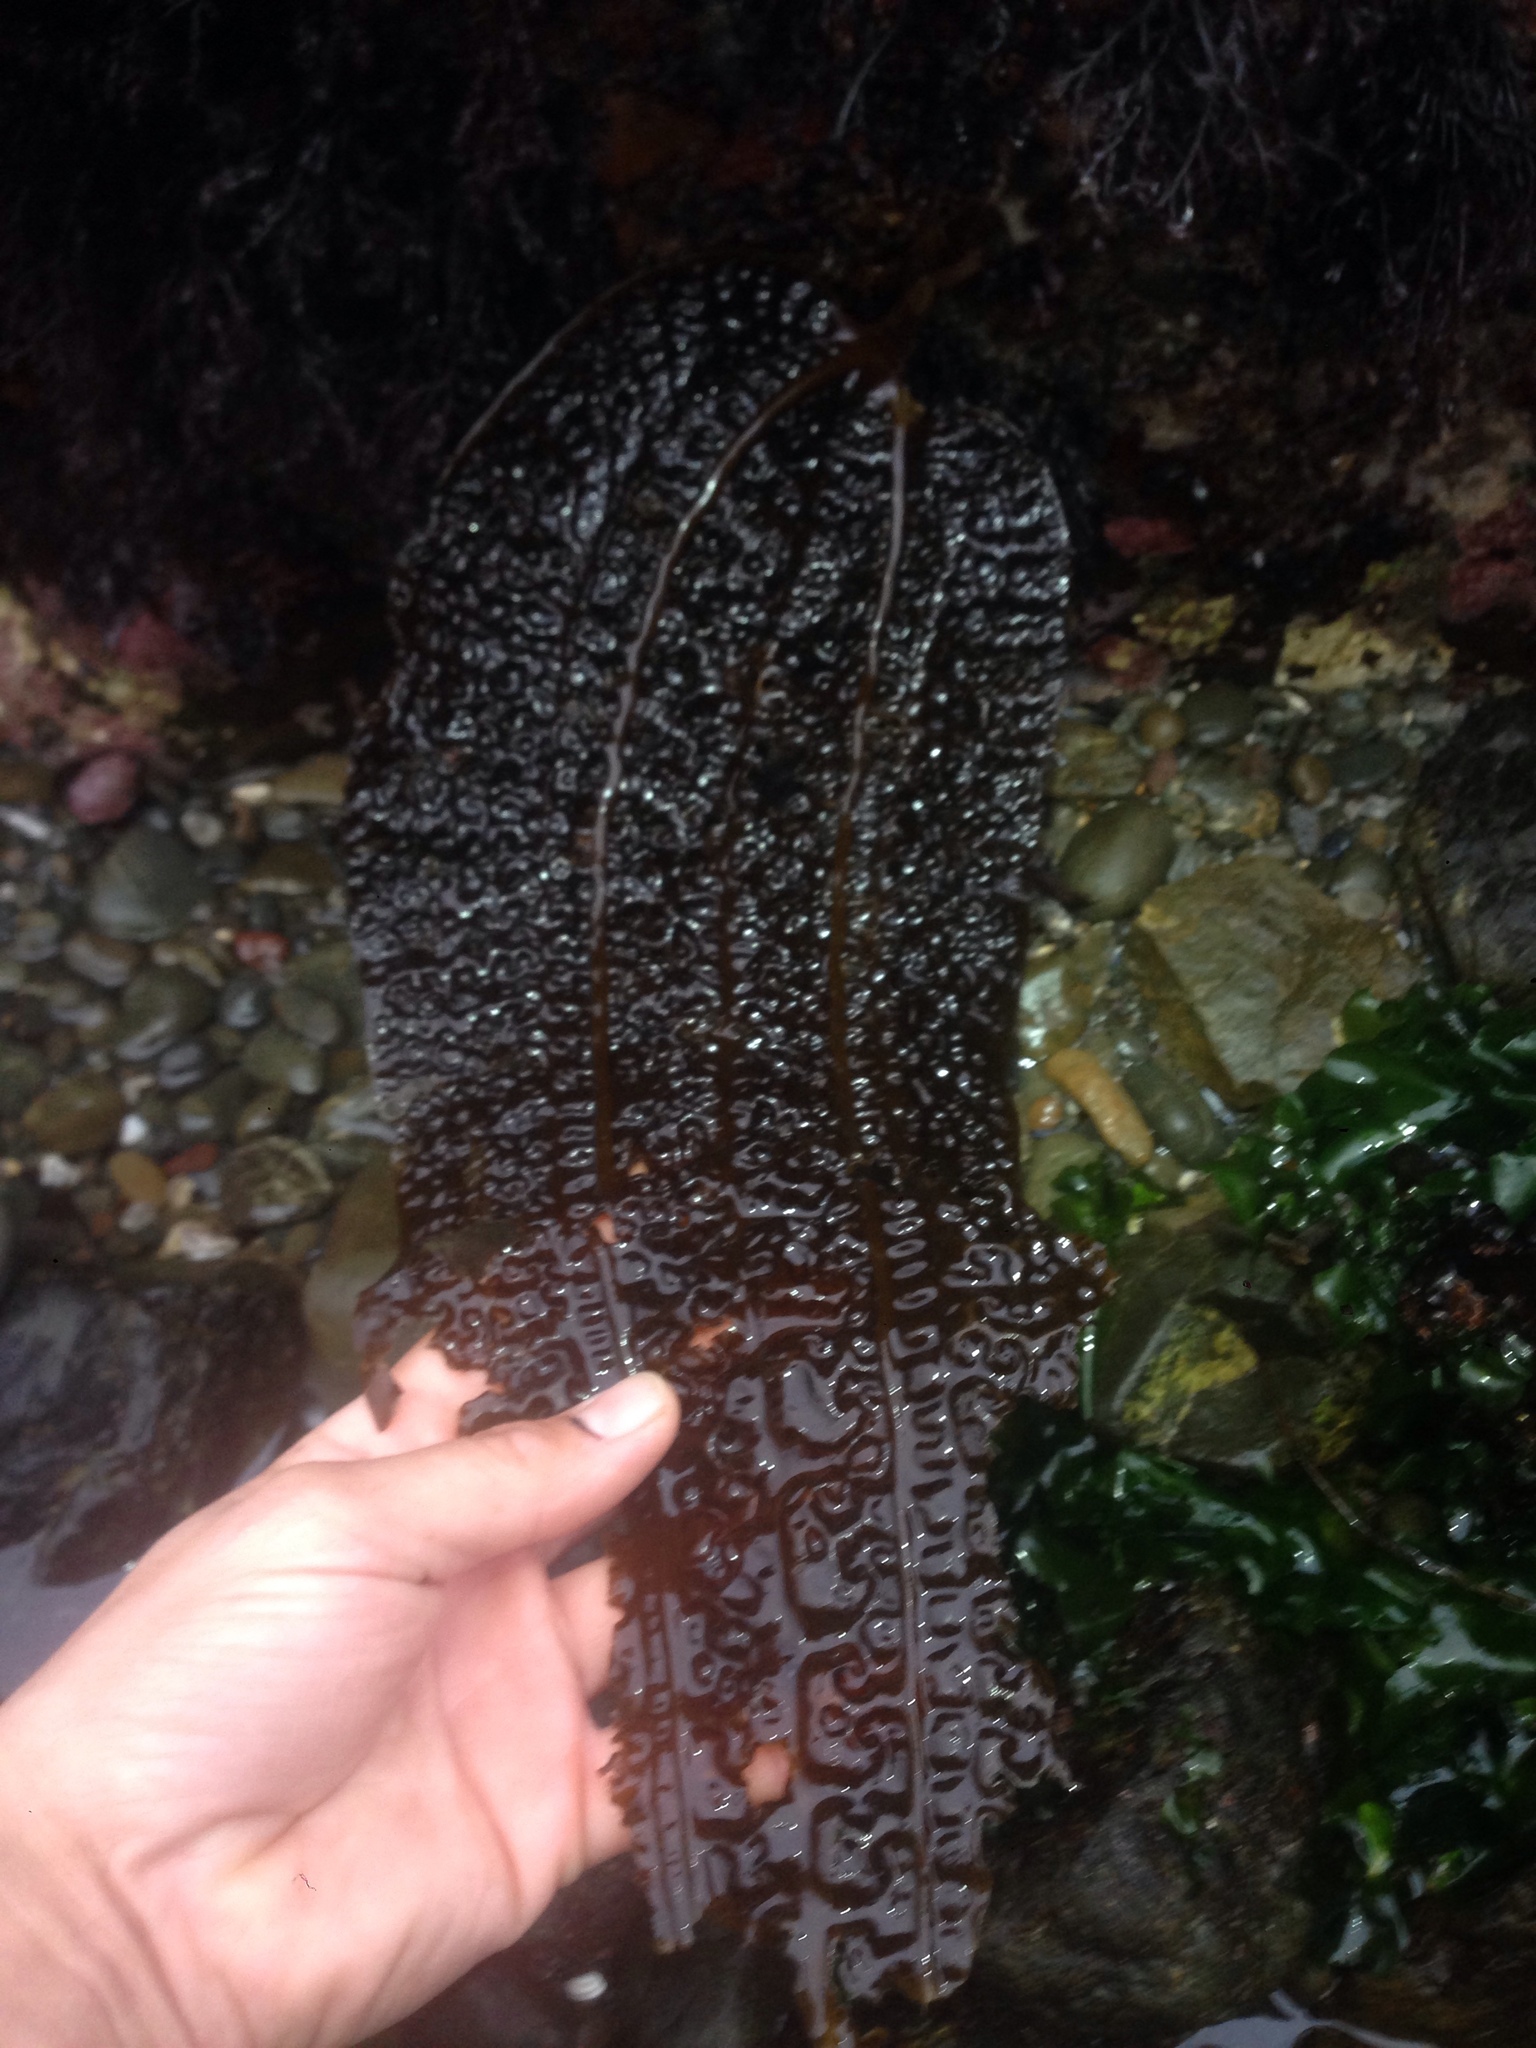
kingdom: Chromista
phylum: Ochrophyta
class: Phaeophyceae
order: Laminariales
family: Costariaceae
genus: Costaria
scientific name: Costaria costata
